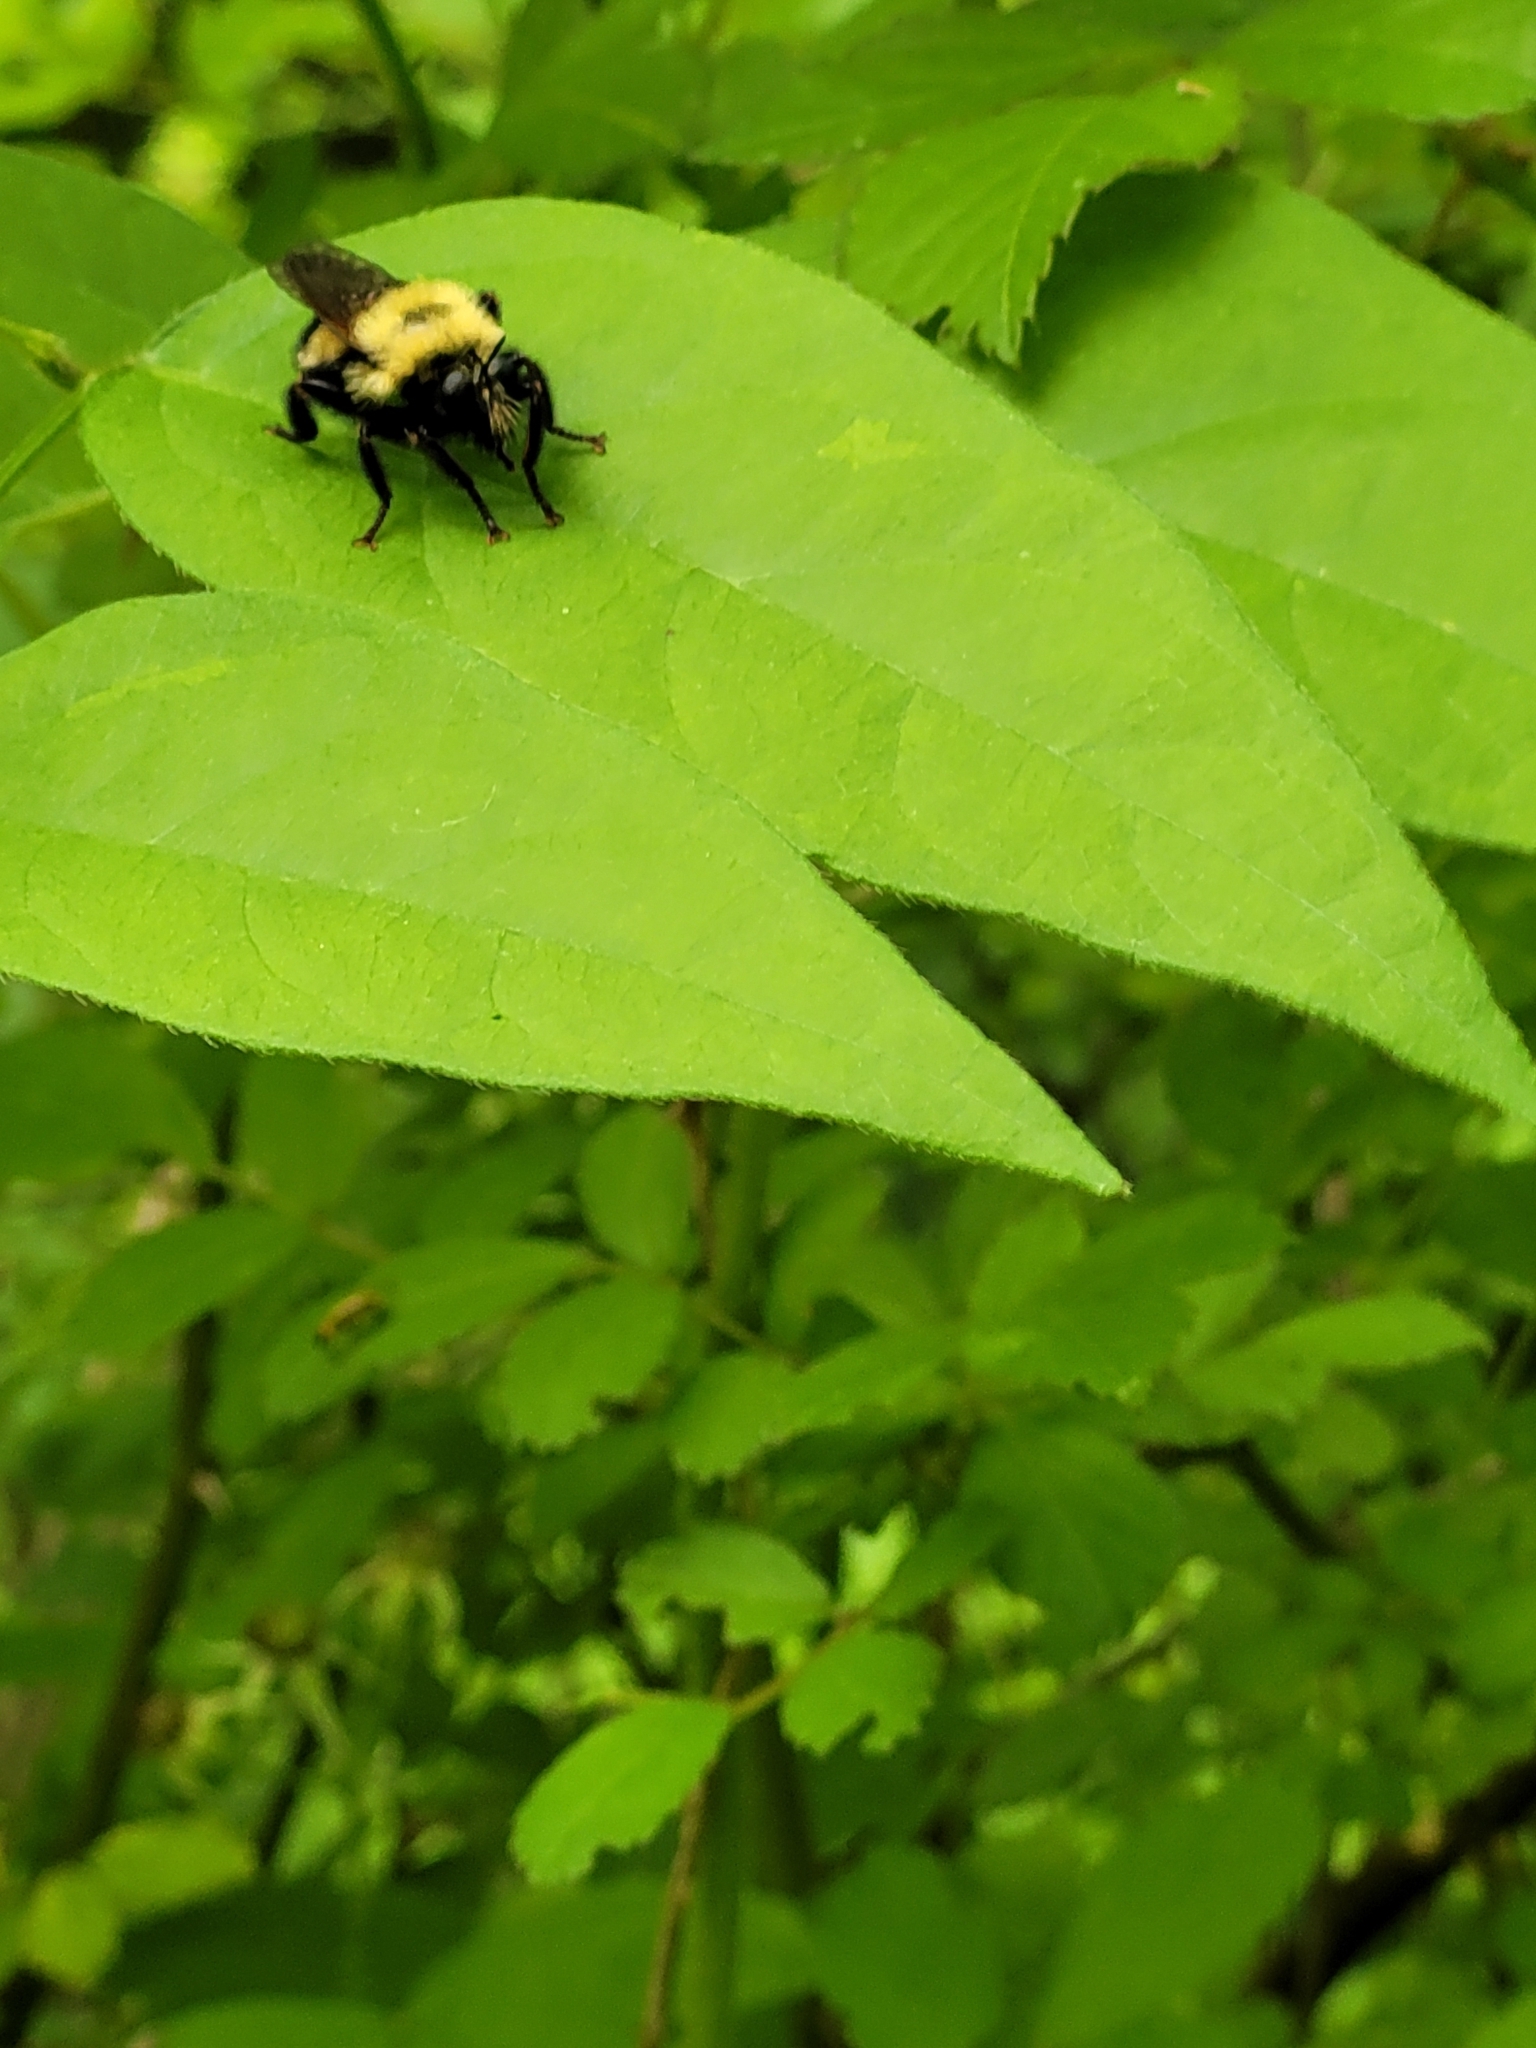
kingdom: Animalia
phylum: Arthropoda
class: Insecta
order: Diptera
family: Asilidae
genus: Laphria
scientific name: Laphria thoracica
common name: Bumble bee mimic robber fly
